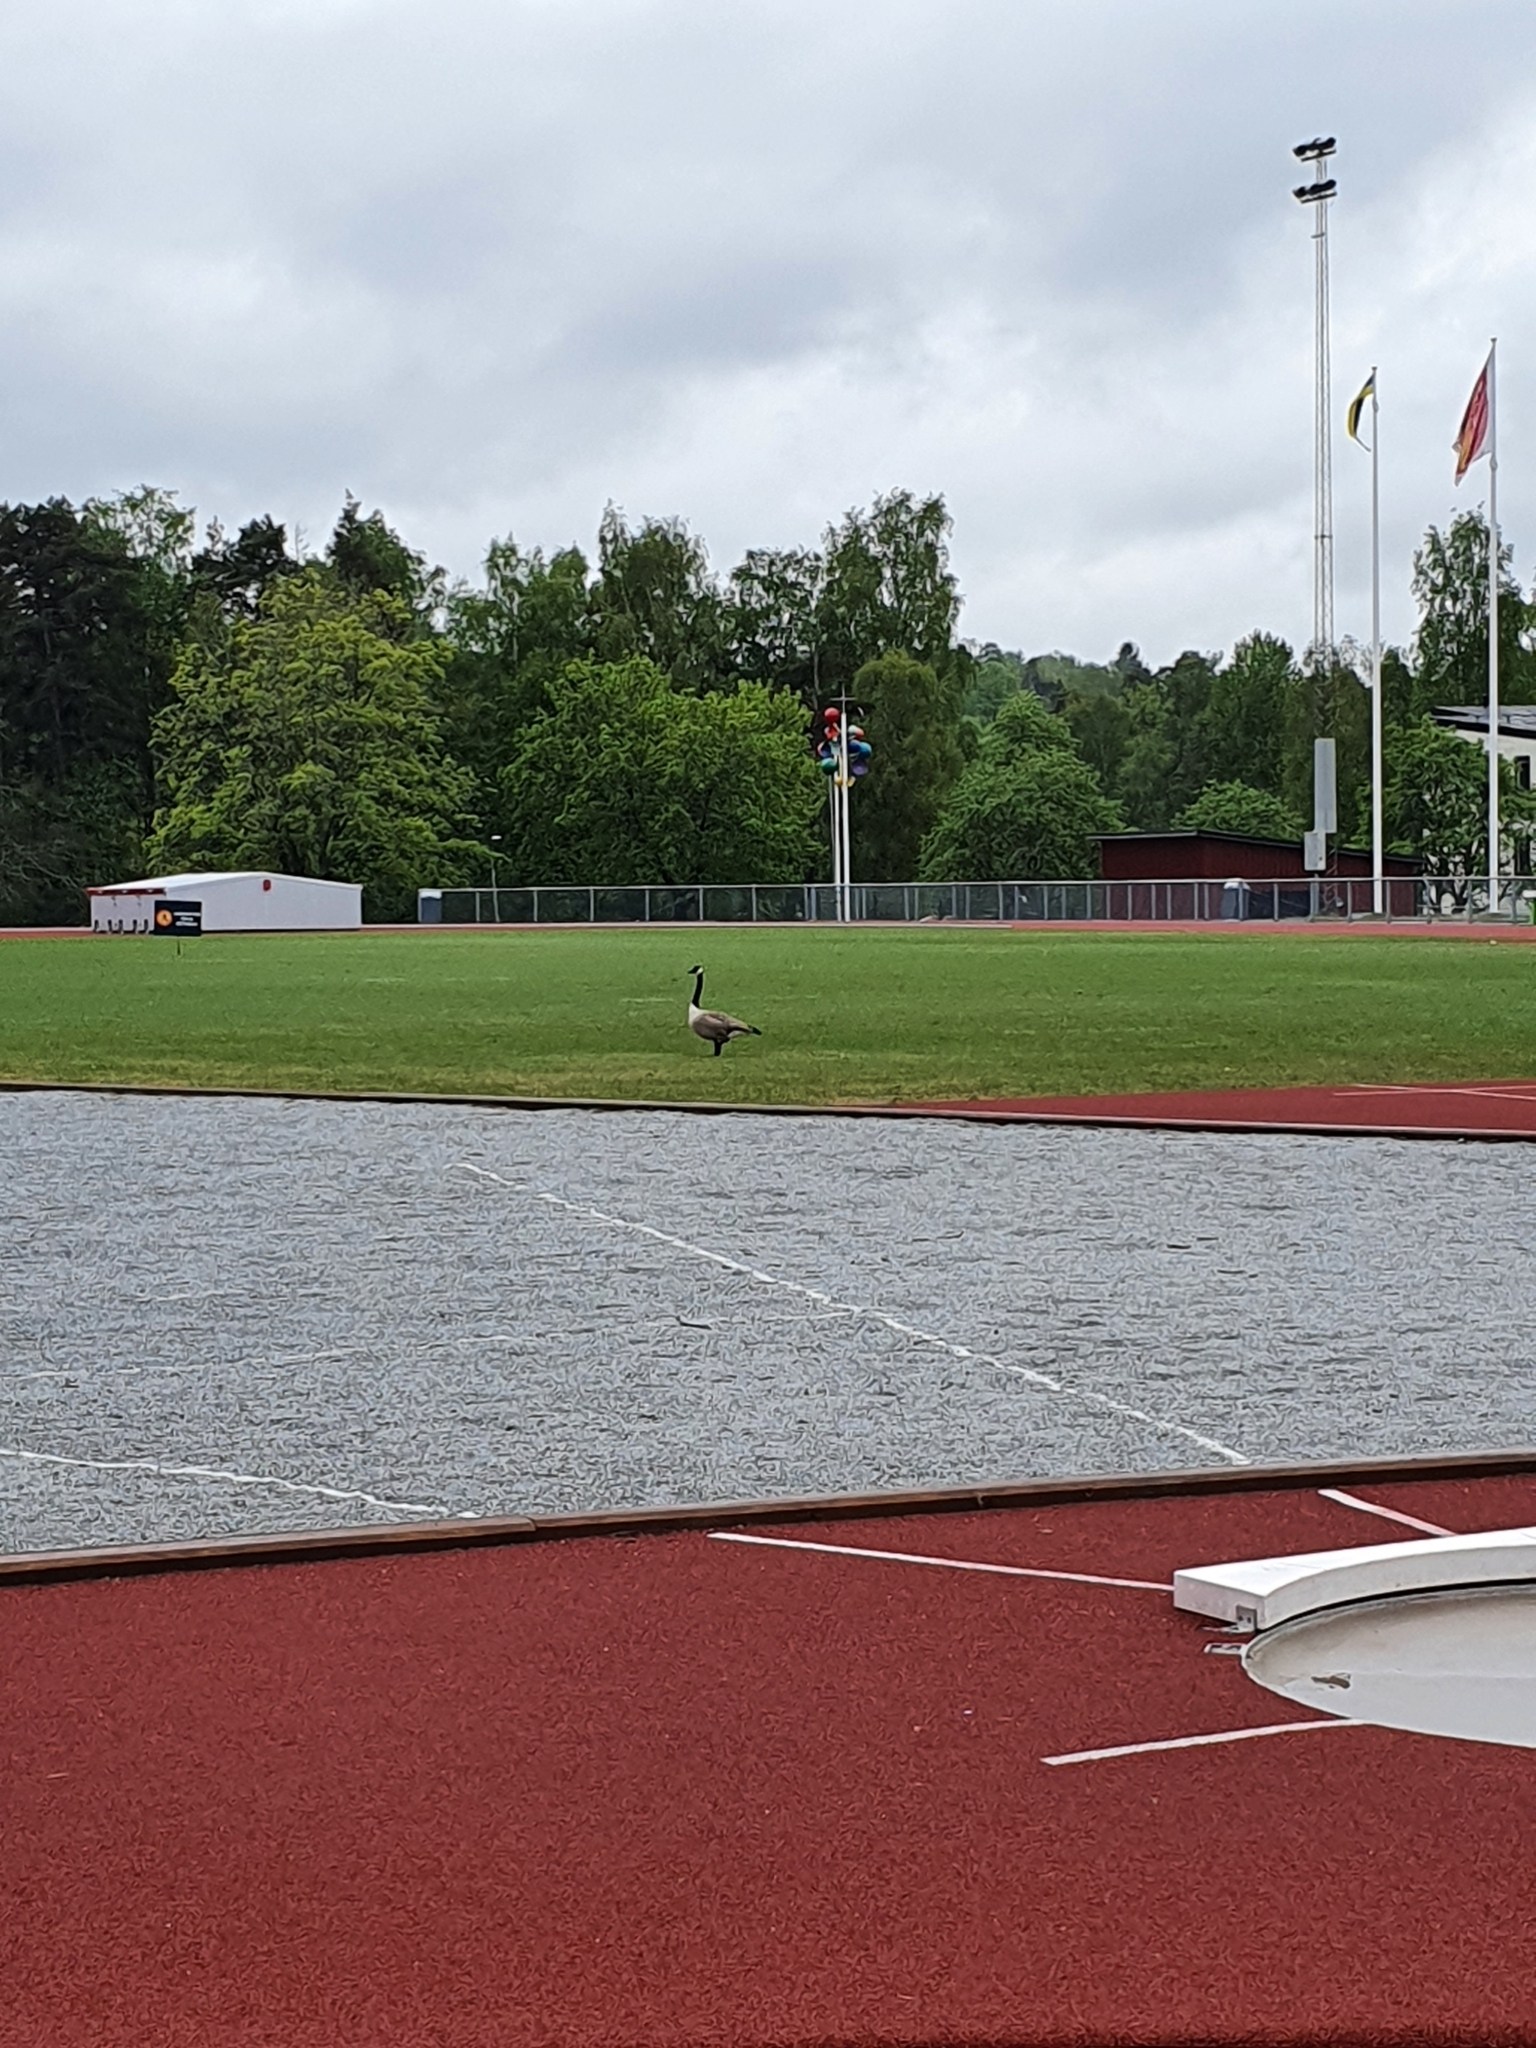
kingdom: Animalia
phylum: Chordata
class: Aves
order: Anseriformes
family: Anatidae
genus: Branta
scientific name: Branta canadensis
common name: Canada goose
